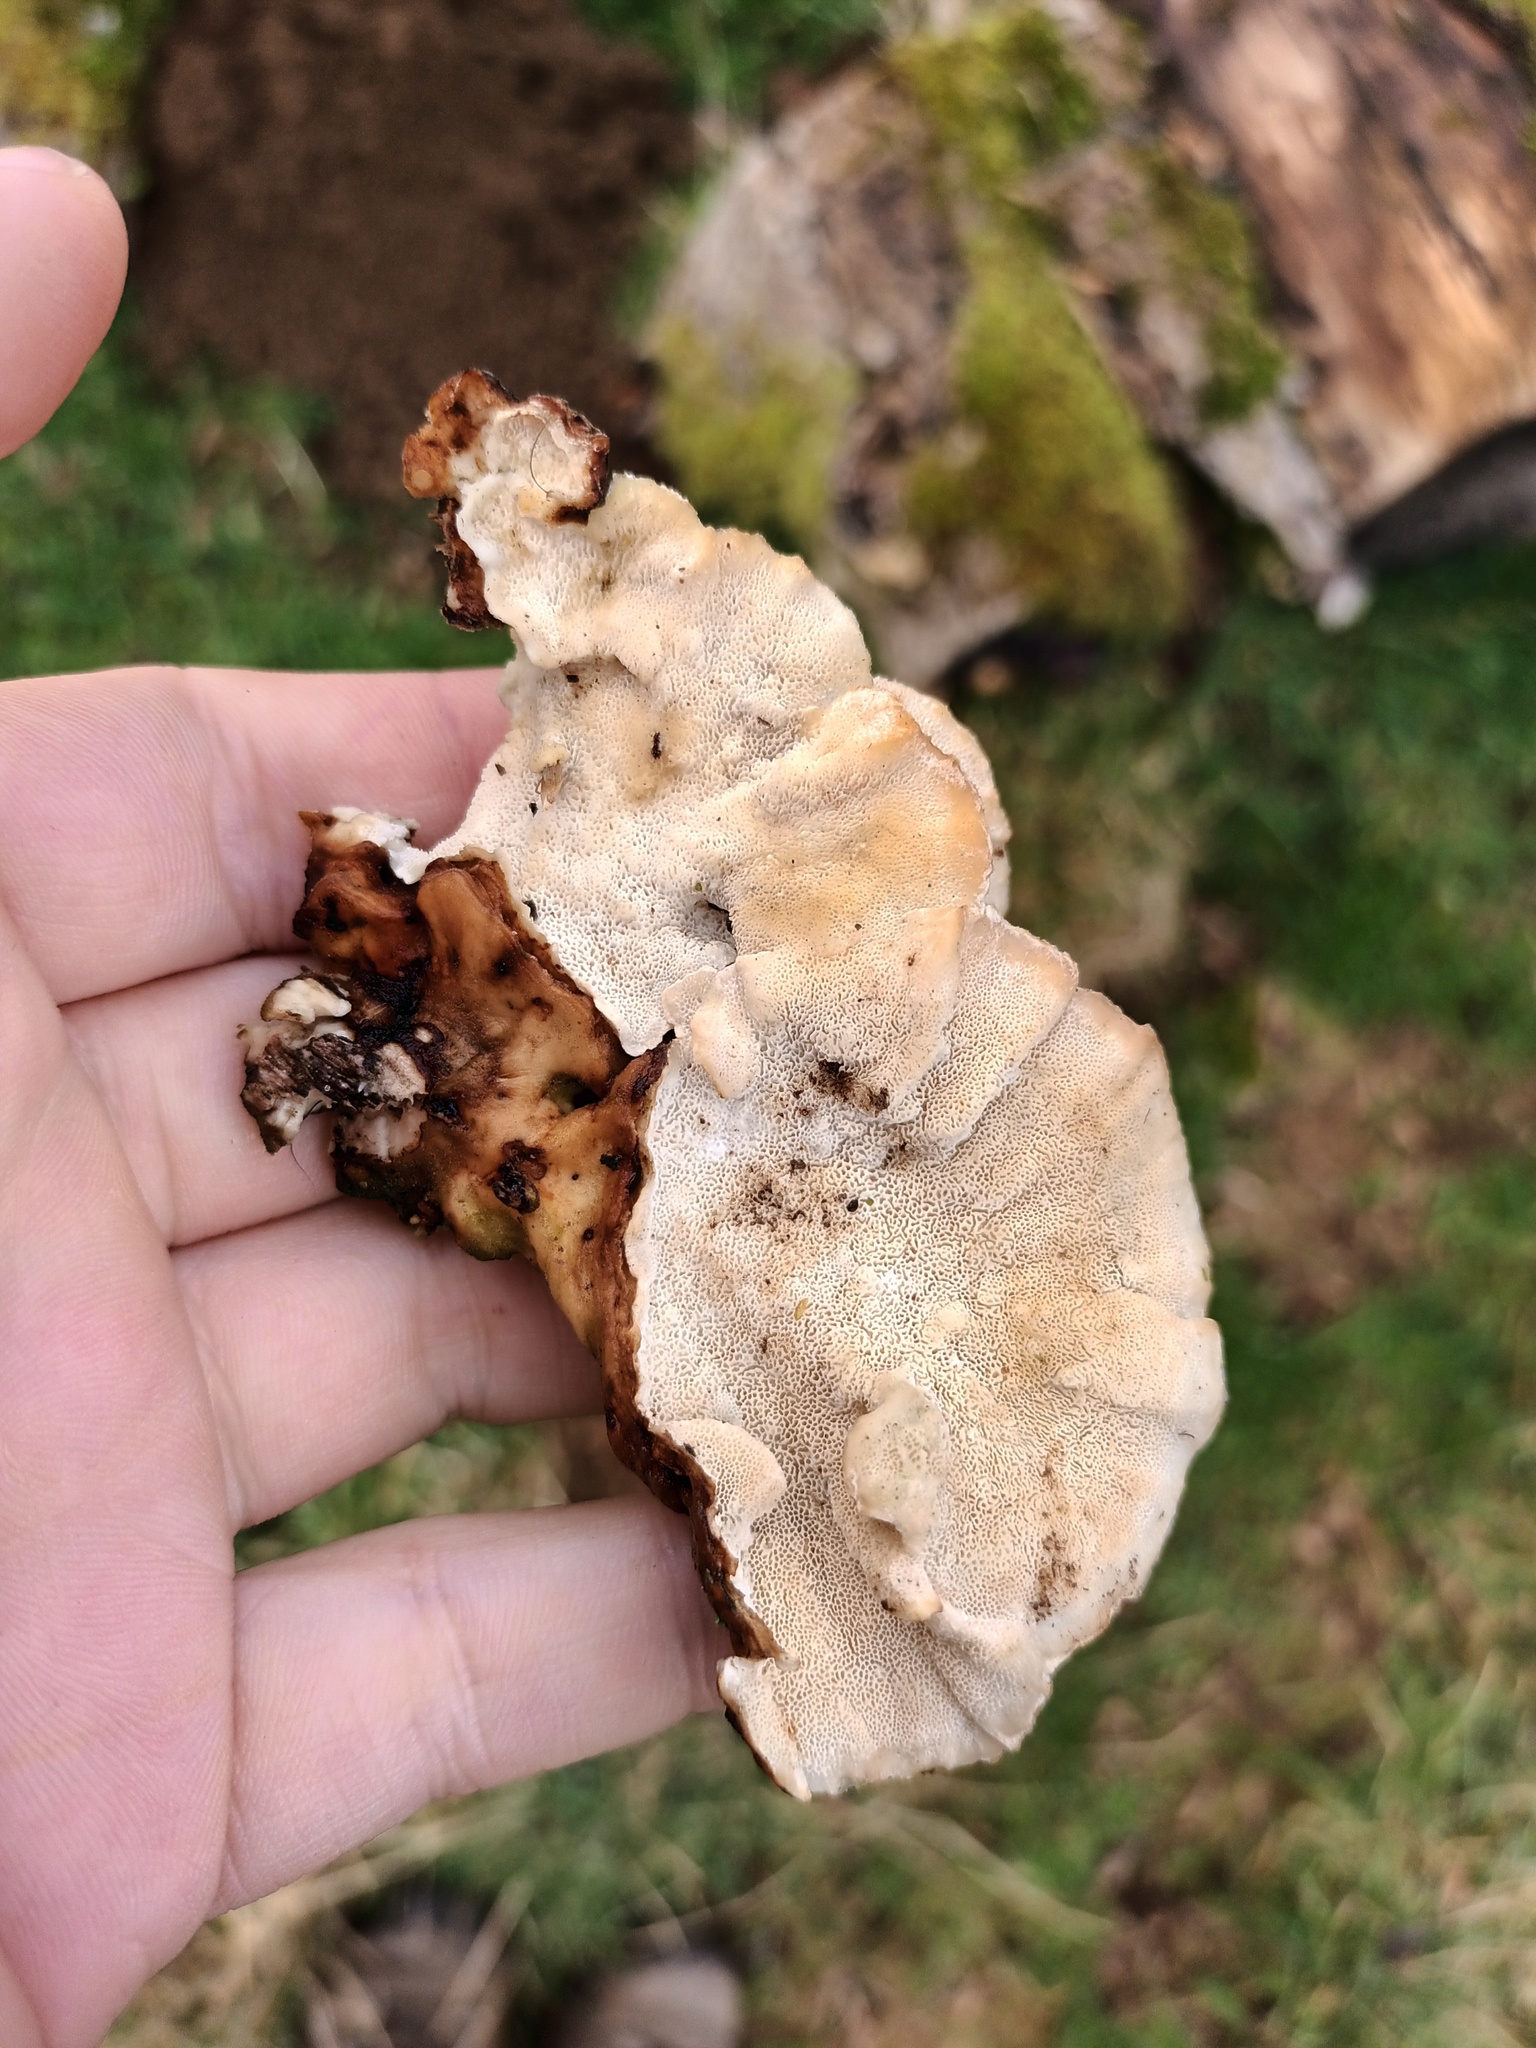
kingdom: Fungi
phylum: Basidiomycota
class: Agaricomycetes
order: Polyporales
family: Polyporaceae
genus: Trametes
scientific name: Trametes versicolor
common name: Turkeytail
